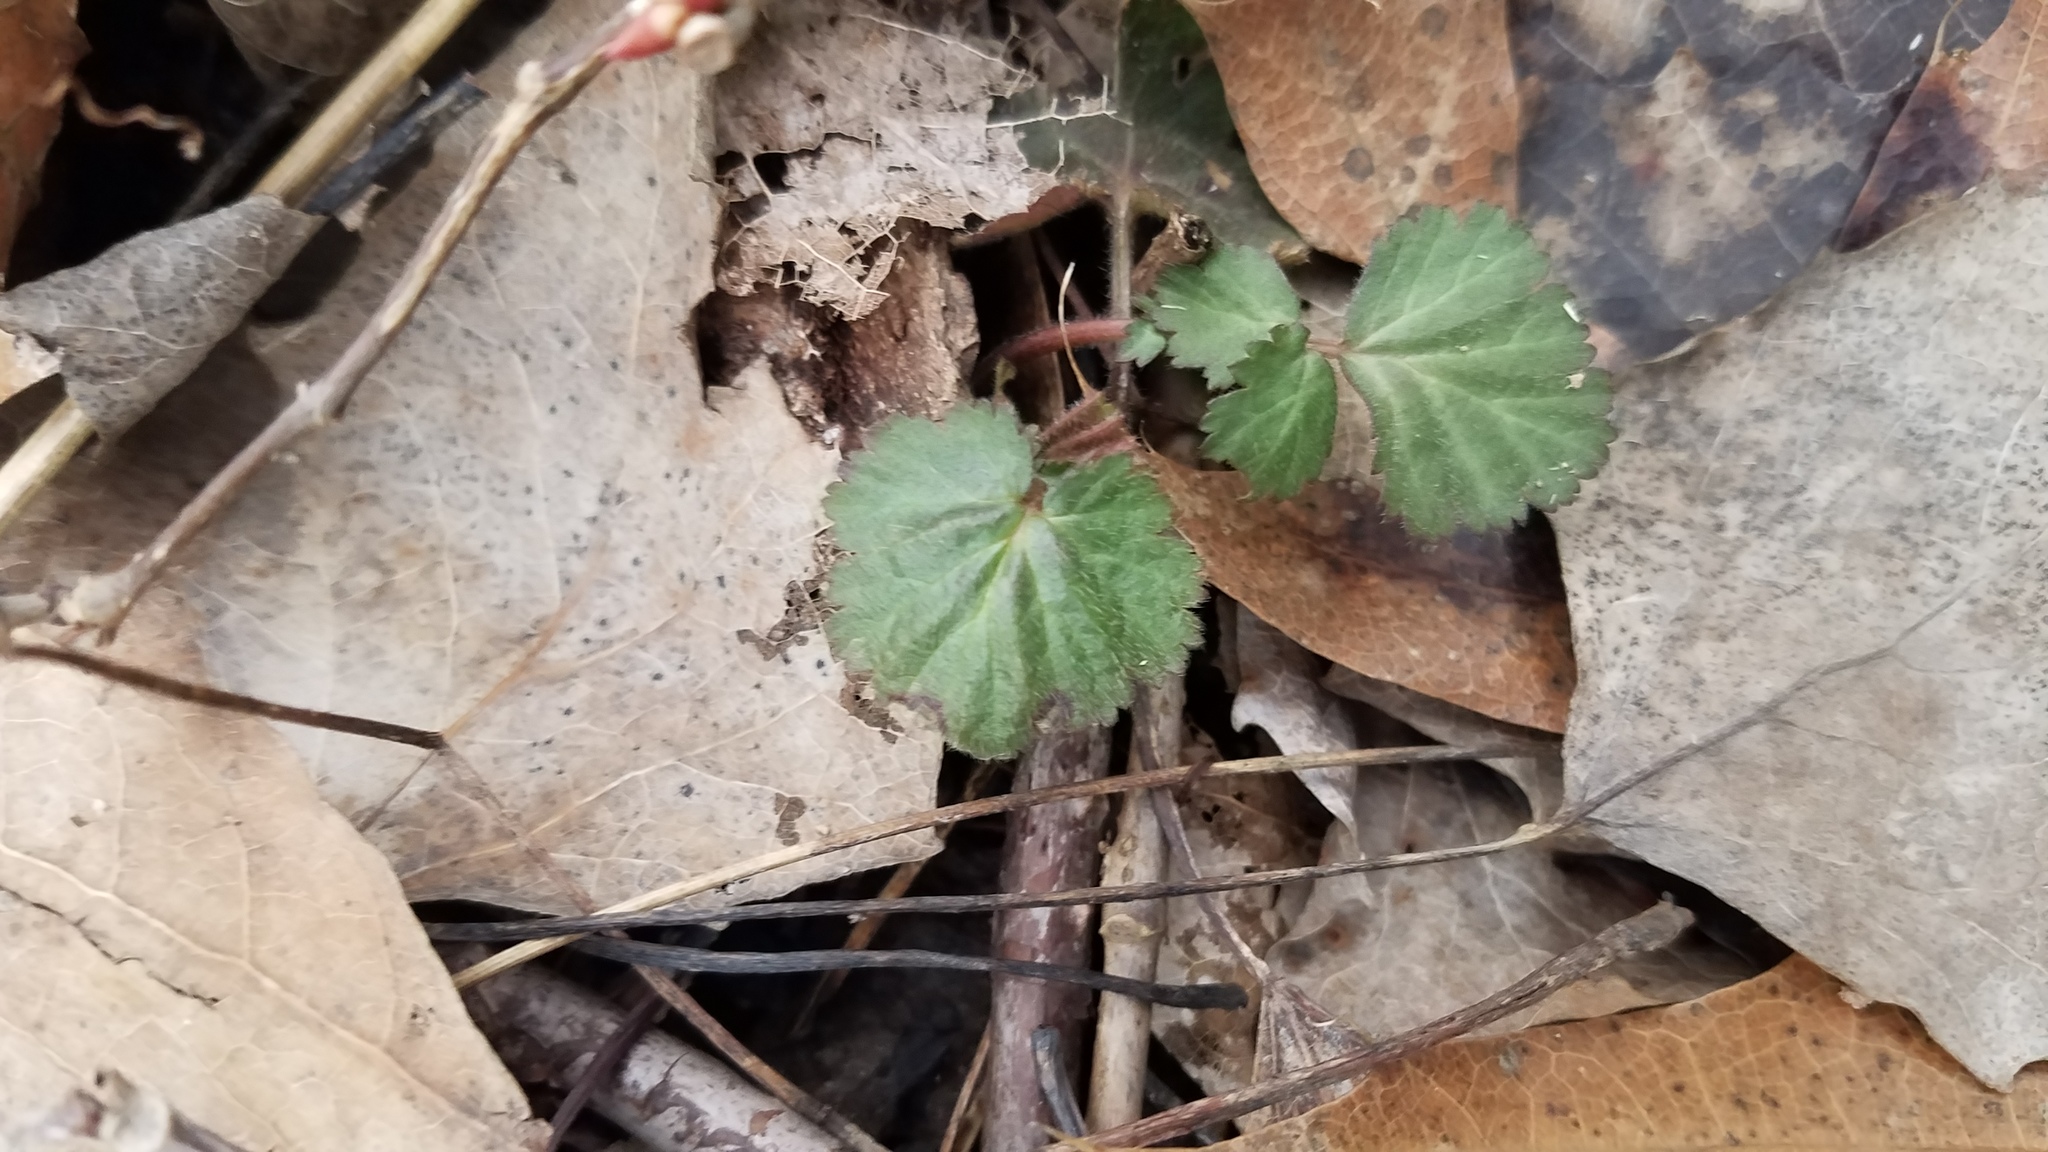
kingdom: Plantae
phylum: Tracheophyta
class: Magnoliopsida
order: Rosales
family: Rosaceae
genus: Geum
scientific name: Geum canadense
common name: White avens
